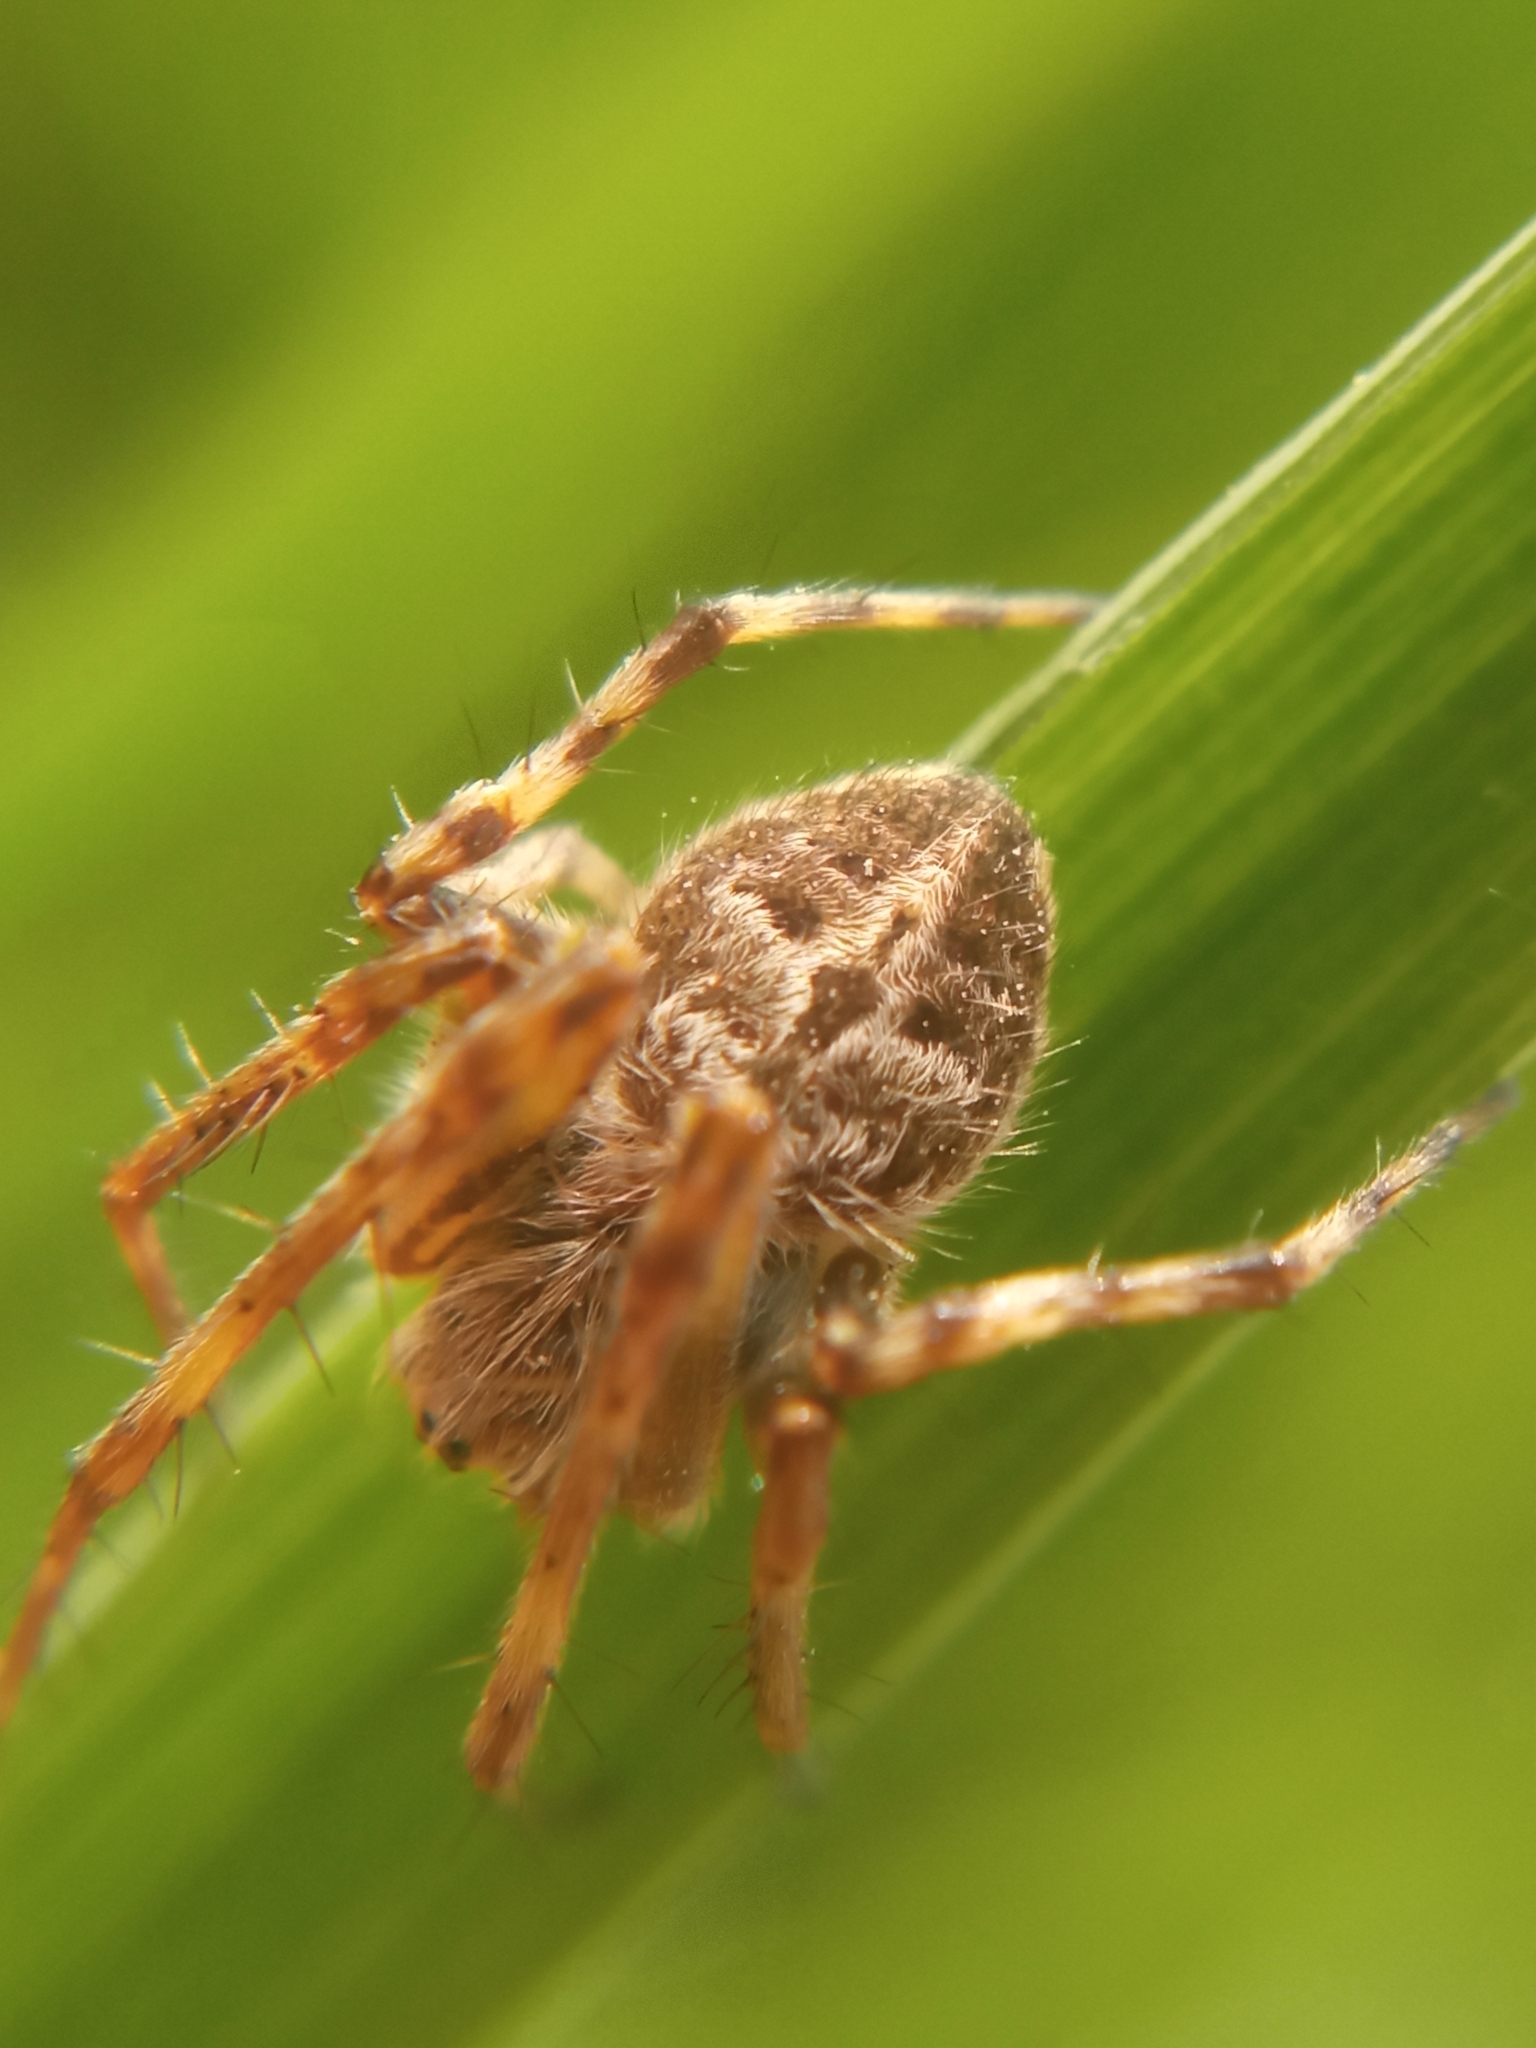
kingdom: Animalia
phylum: Arthropoda
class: Arachnida
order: Araneae
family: Araneidae
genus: Agalenatea
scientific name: Agalenatea redii
